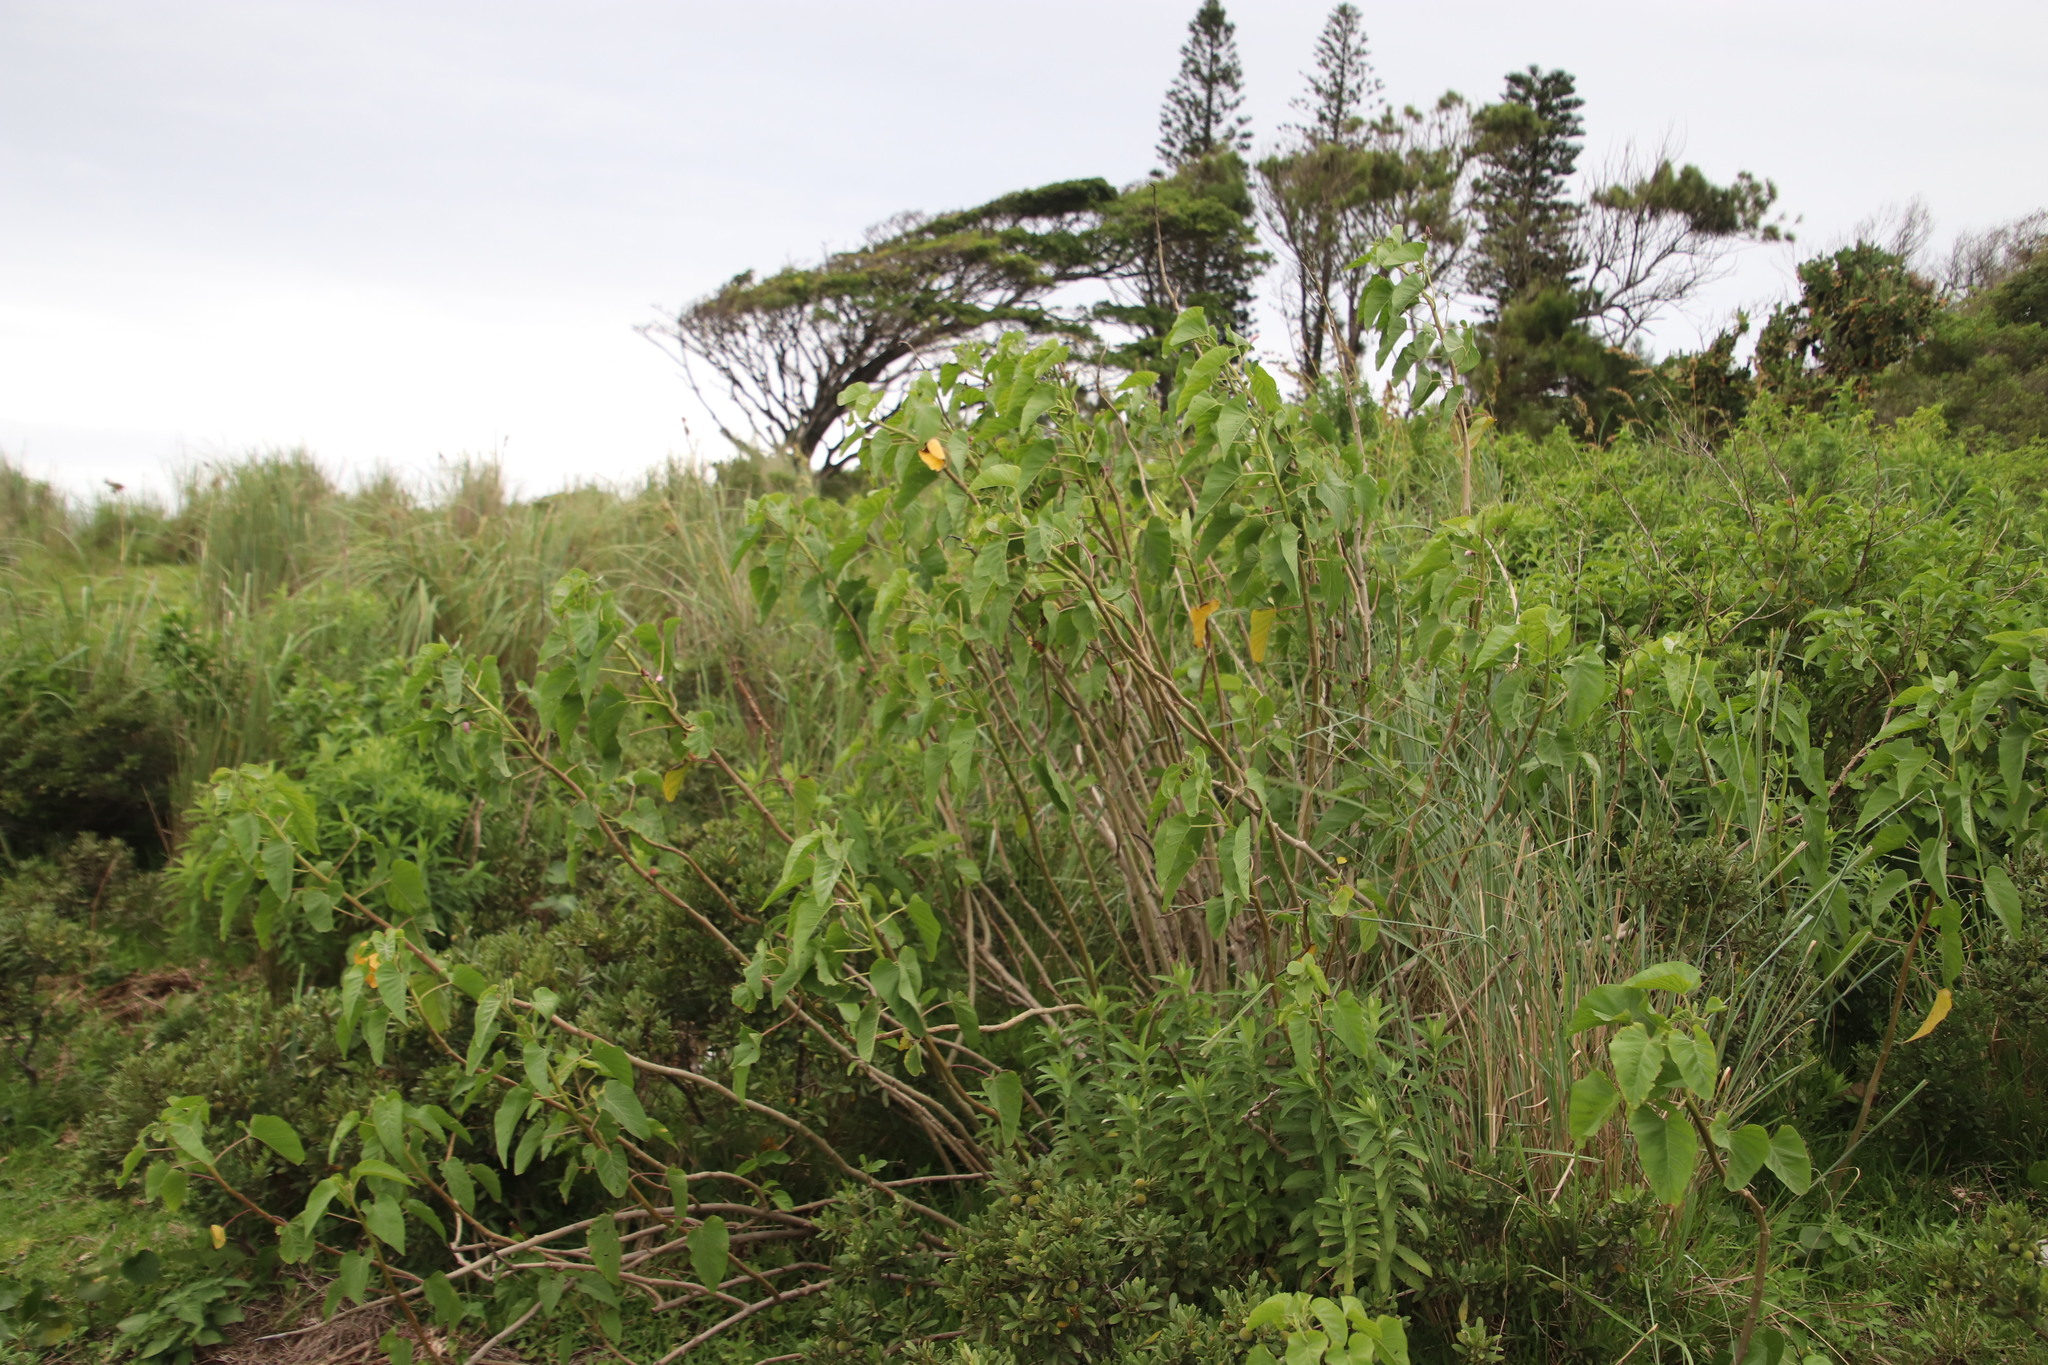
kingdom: Plantae
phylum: Tracheophyta
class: Magnoliopsida
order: Solanales
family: Convolvulaceae
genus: Ipomoea
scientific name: Ipomoea carnea
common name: Morning-glory
